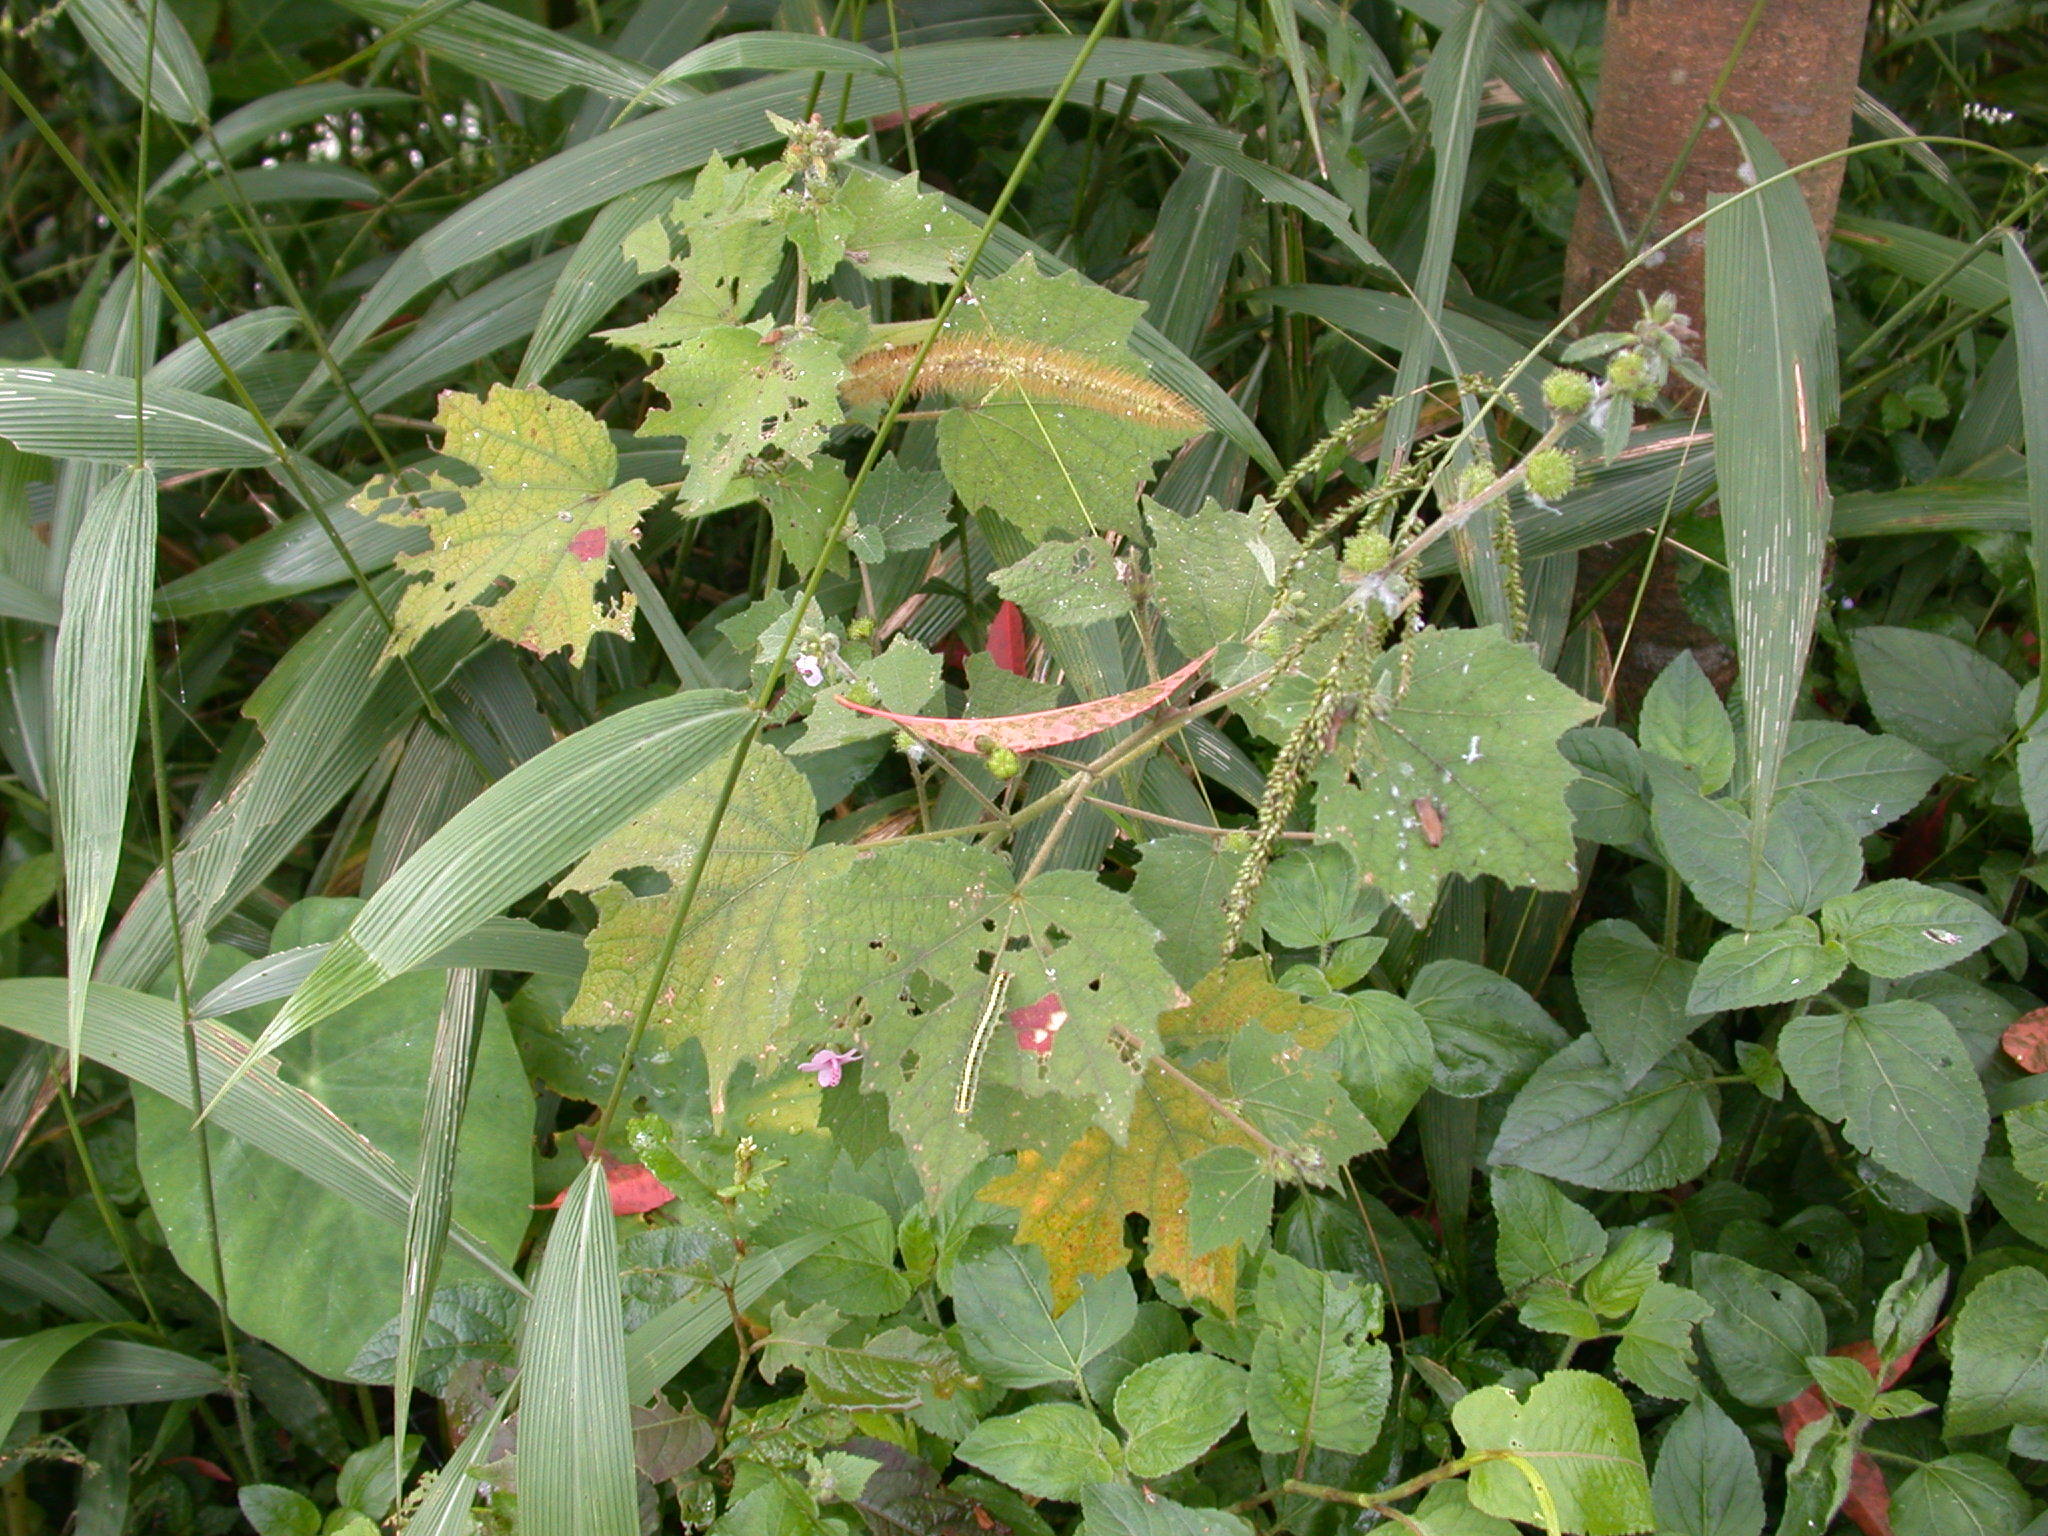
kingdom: Plantae
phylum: Tracheophyta
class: Magnoliopsida
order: Malvales
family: Malvaceae
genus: Urena
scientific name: Urena lobata
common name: Caesarweed
